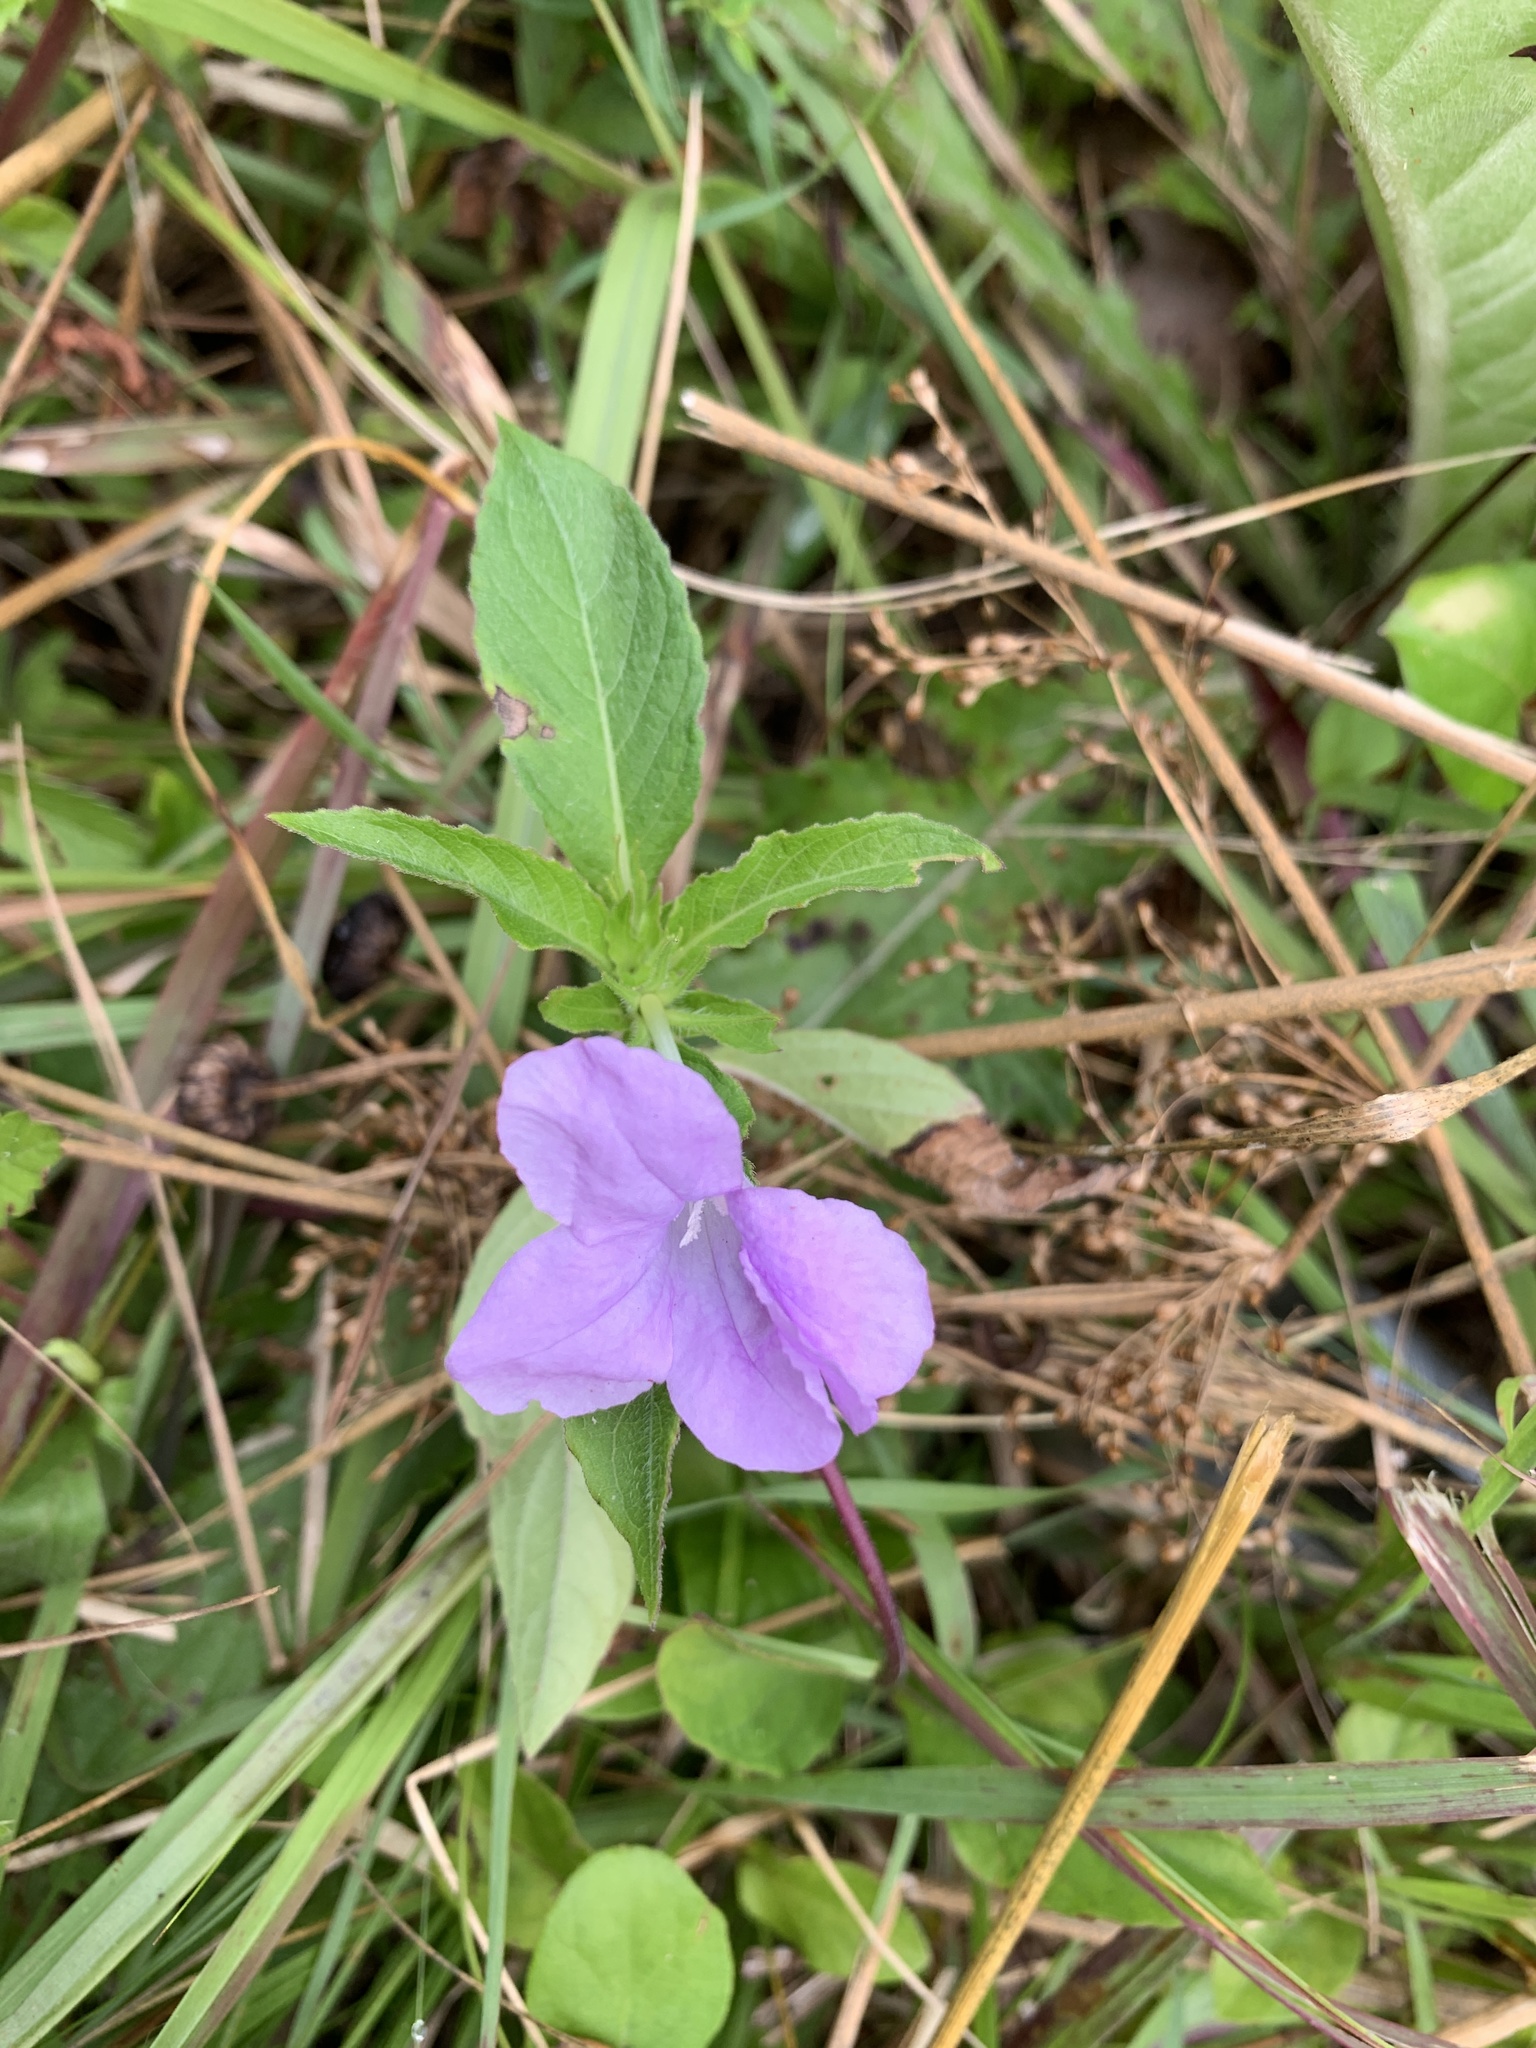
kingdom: Plantae
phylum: Tracheophyta
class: Magnoliopsida
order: Lamiales
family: Acanthaceae
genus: Ruellia
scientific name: Ruellia caroliniensis
